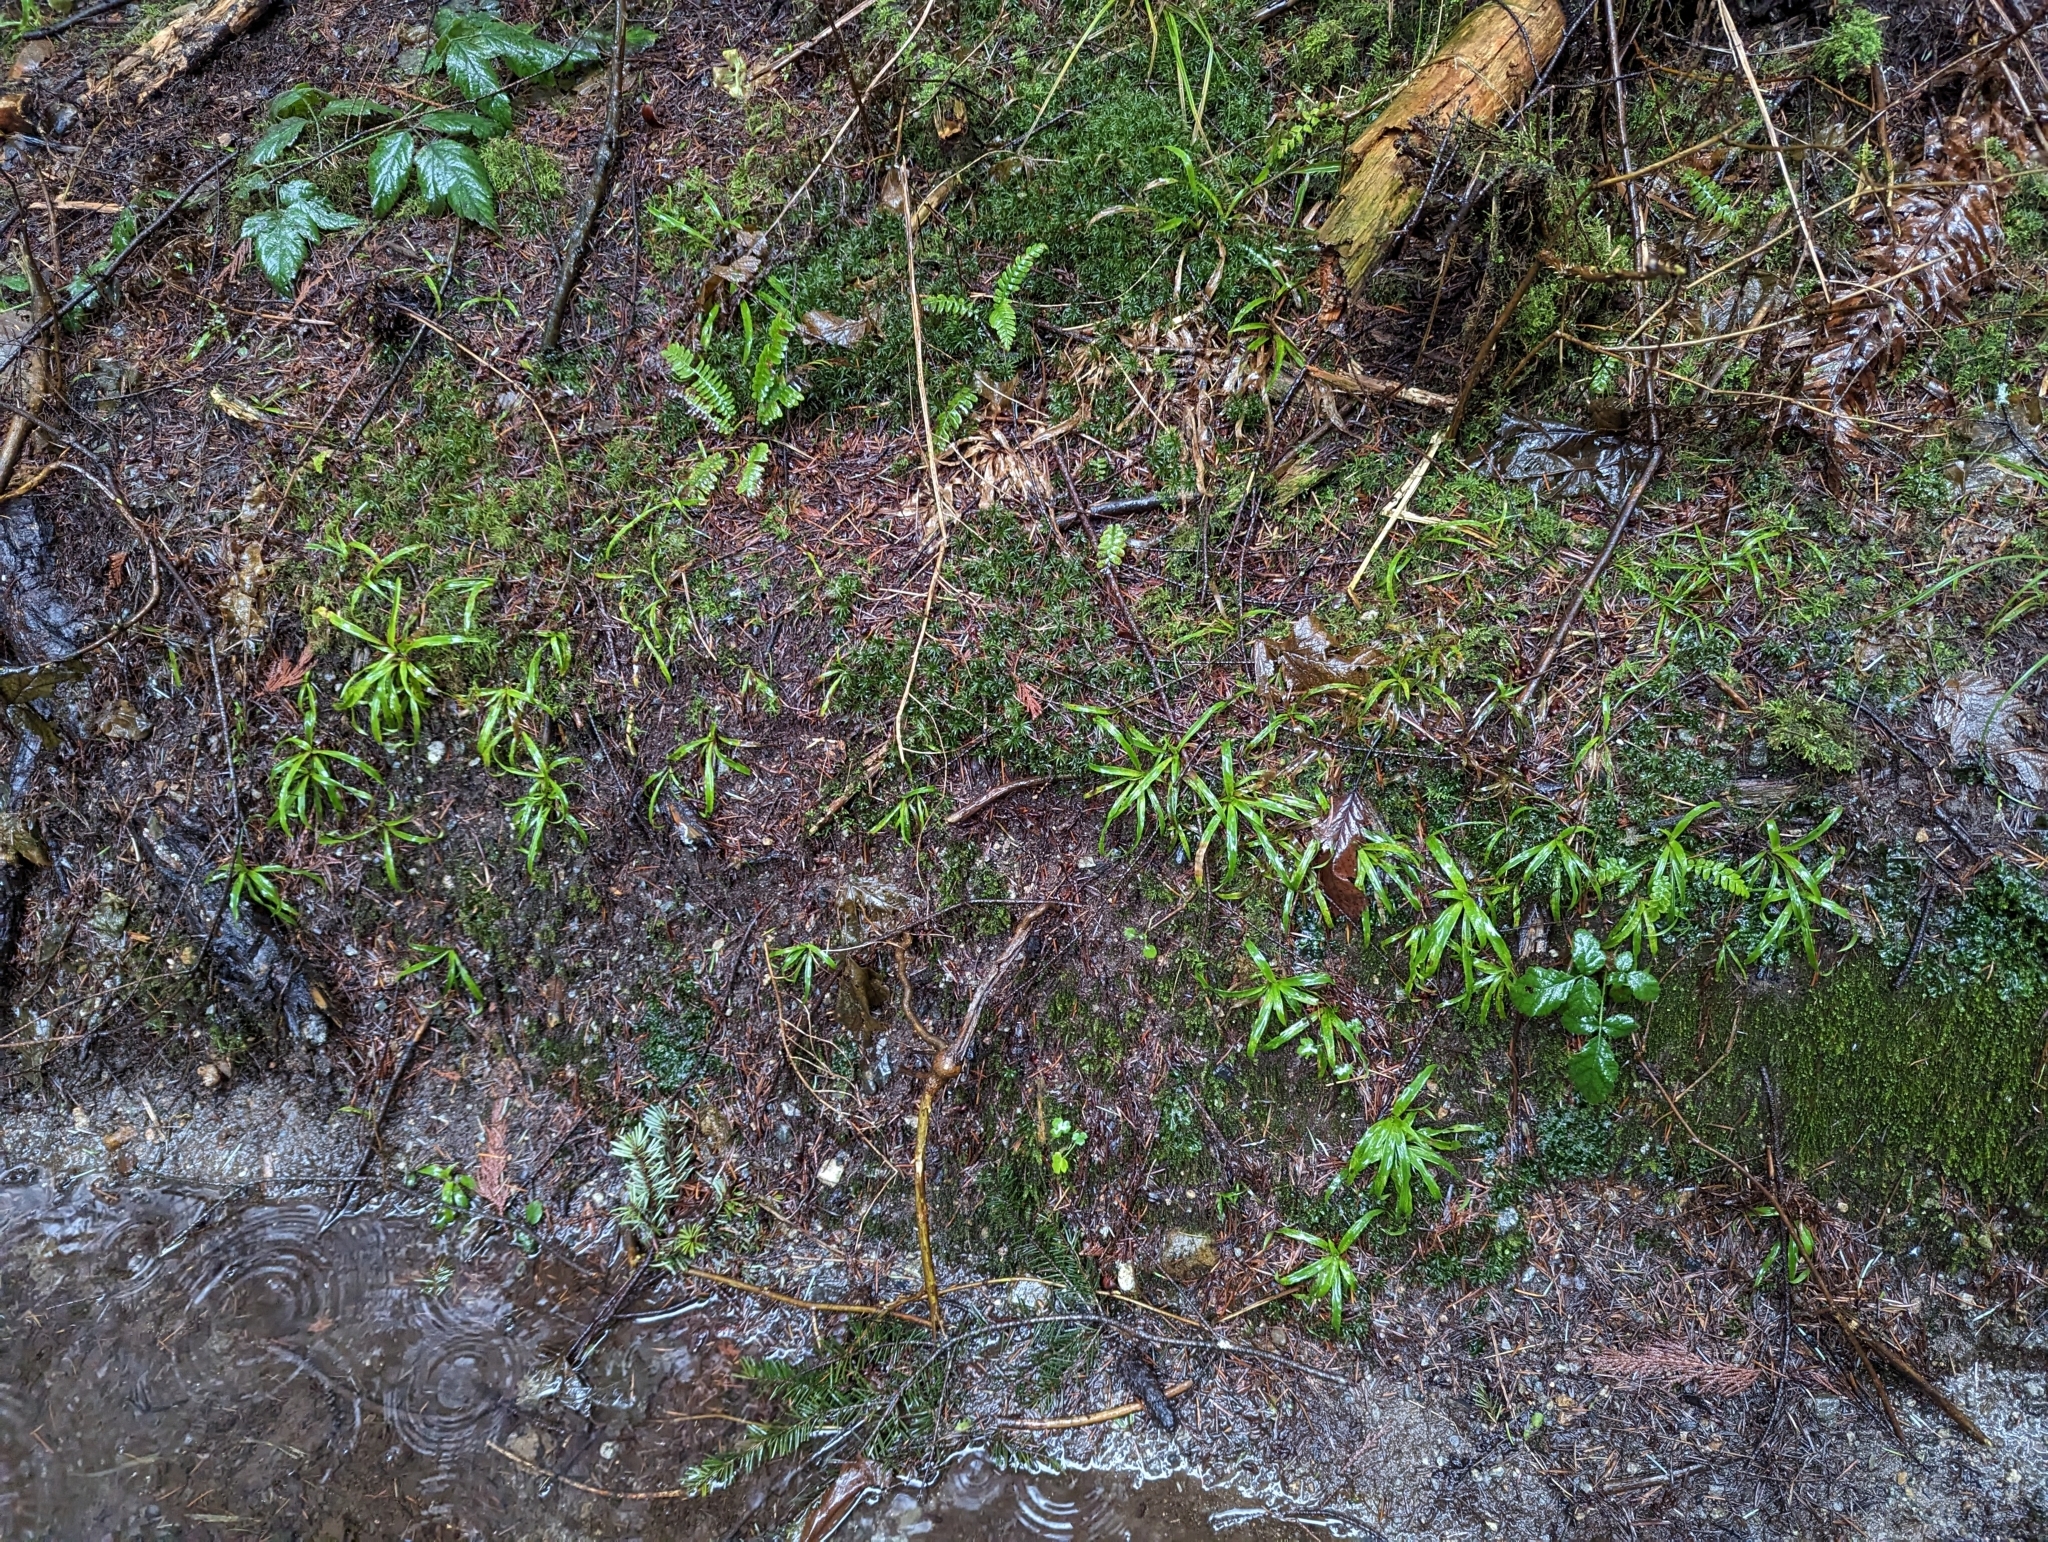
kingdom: Plantae
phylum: Tracheophyta
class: Liliopsida
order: Poales
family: Juncaceae
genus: Luzula
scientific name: Luzula parviflora
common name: Millet woodrush
